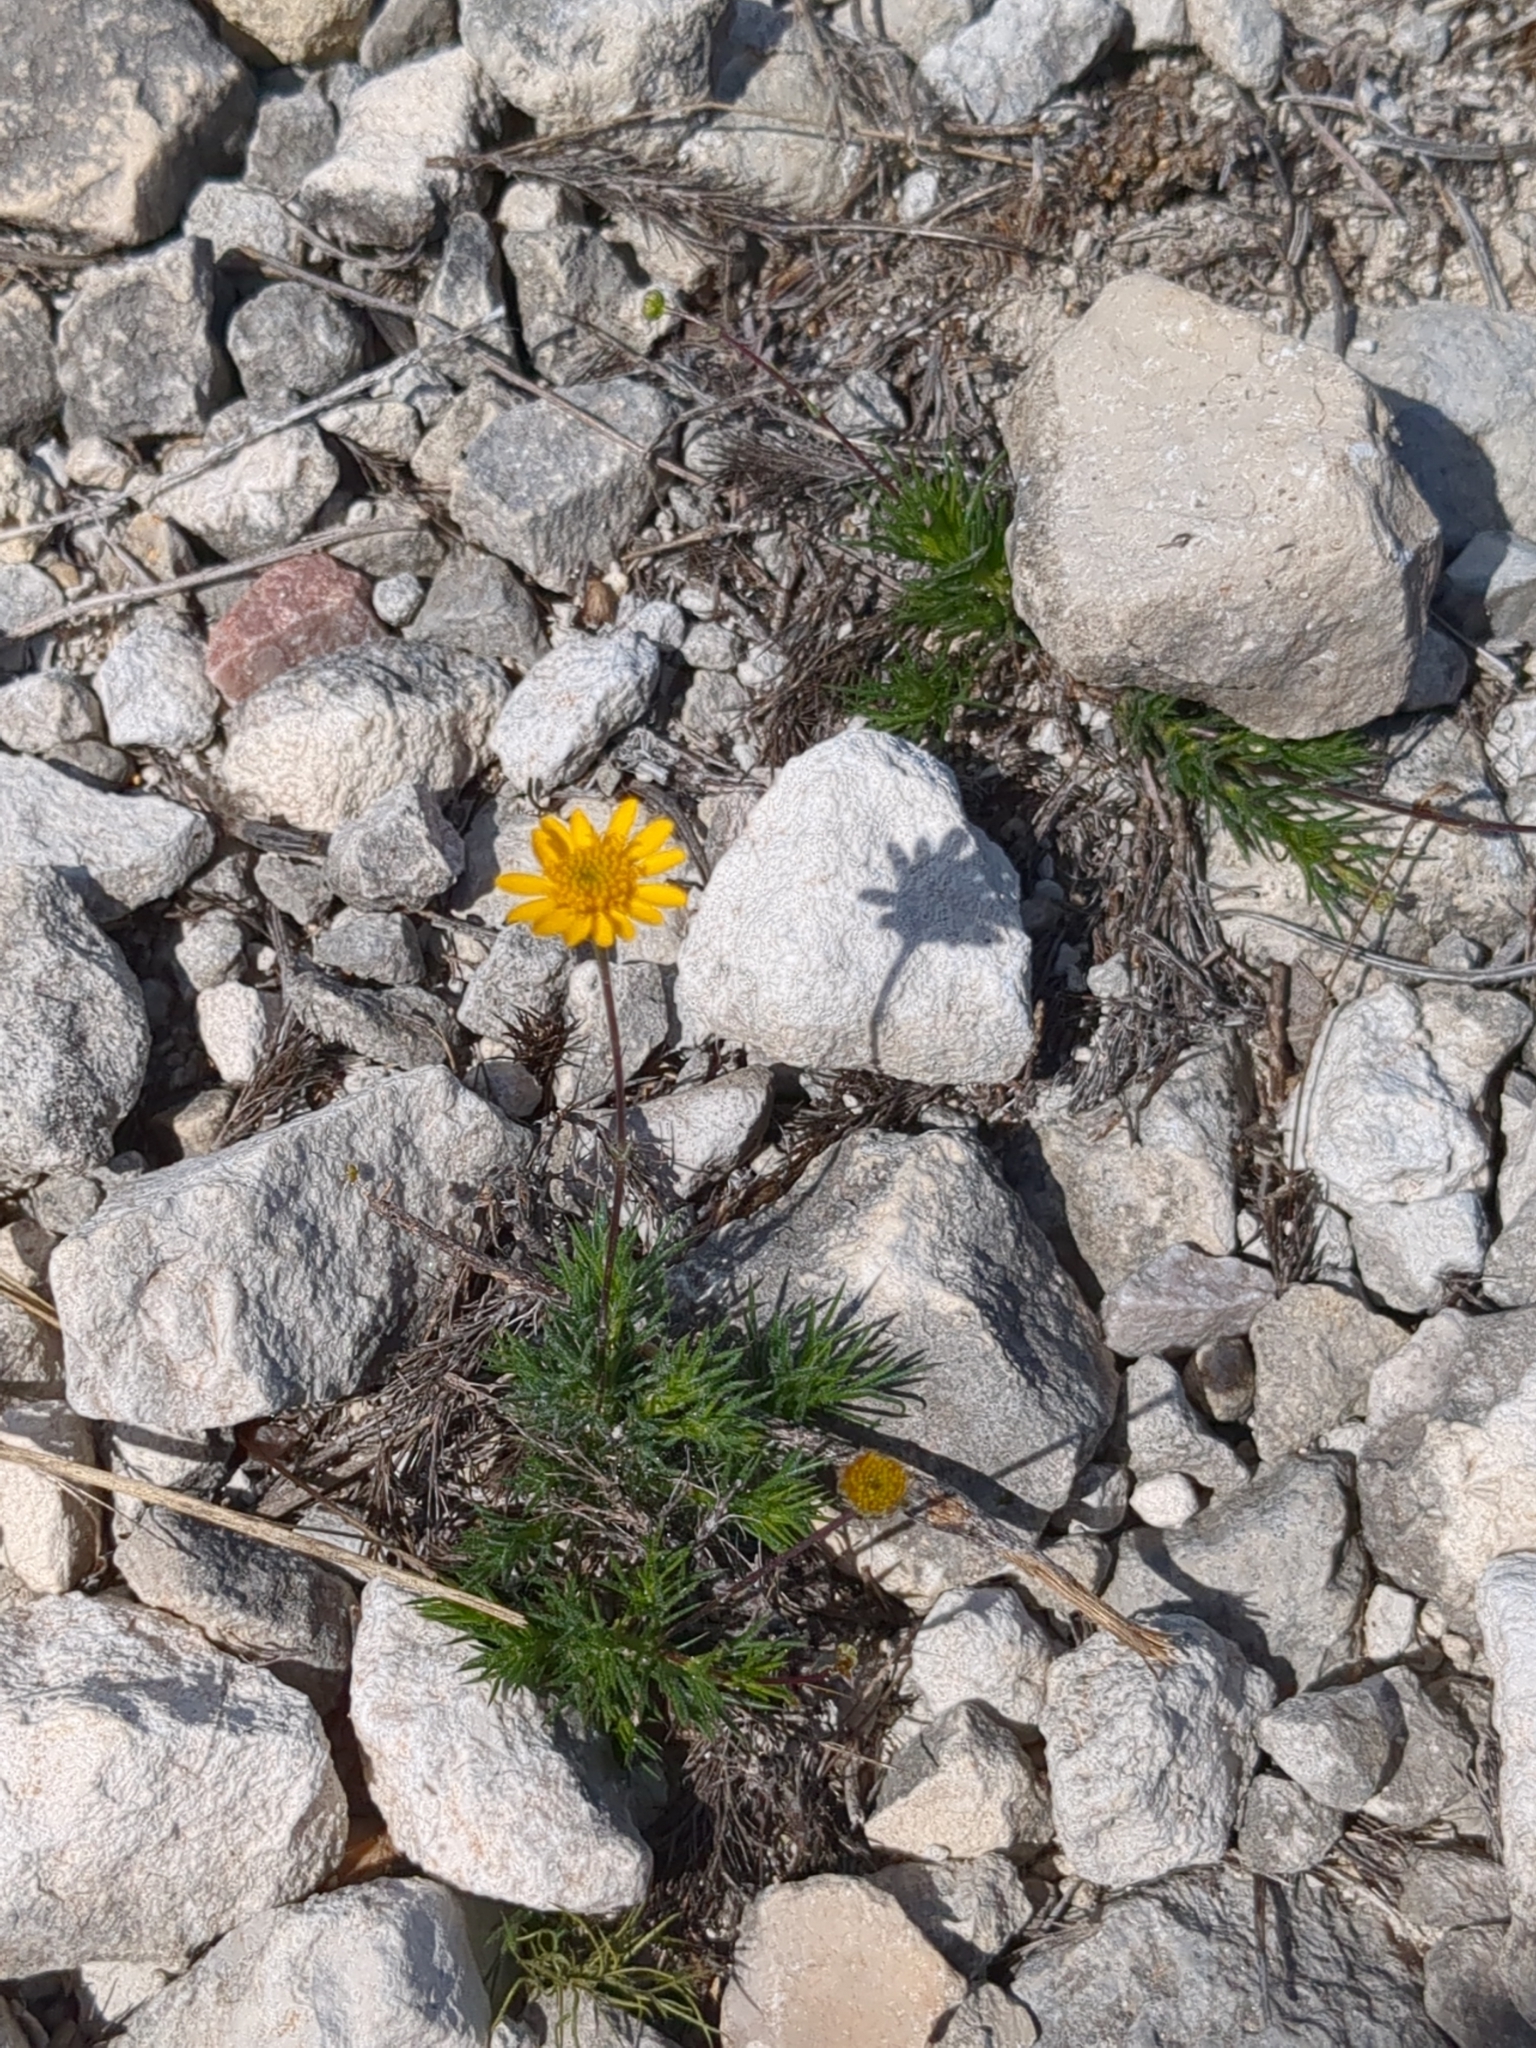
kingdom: Plantae
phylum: Tracheophyta
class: Magnoliopsida
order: Asterales
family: Asteraceae
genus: Thymophylla
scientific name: Thymophylla pentachaeta
